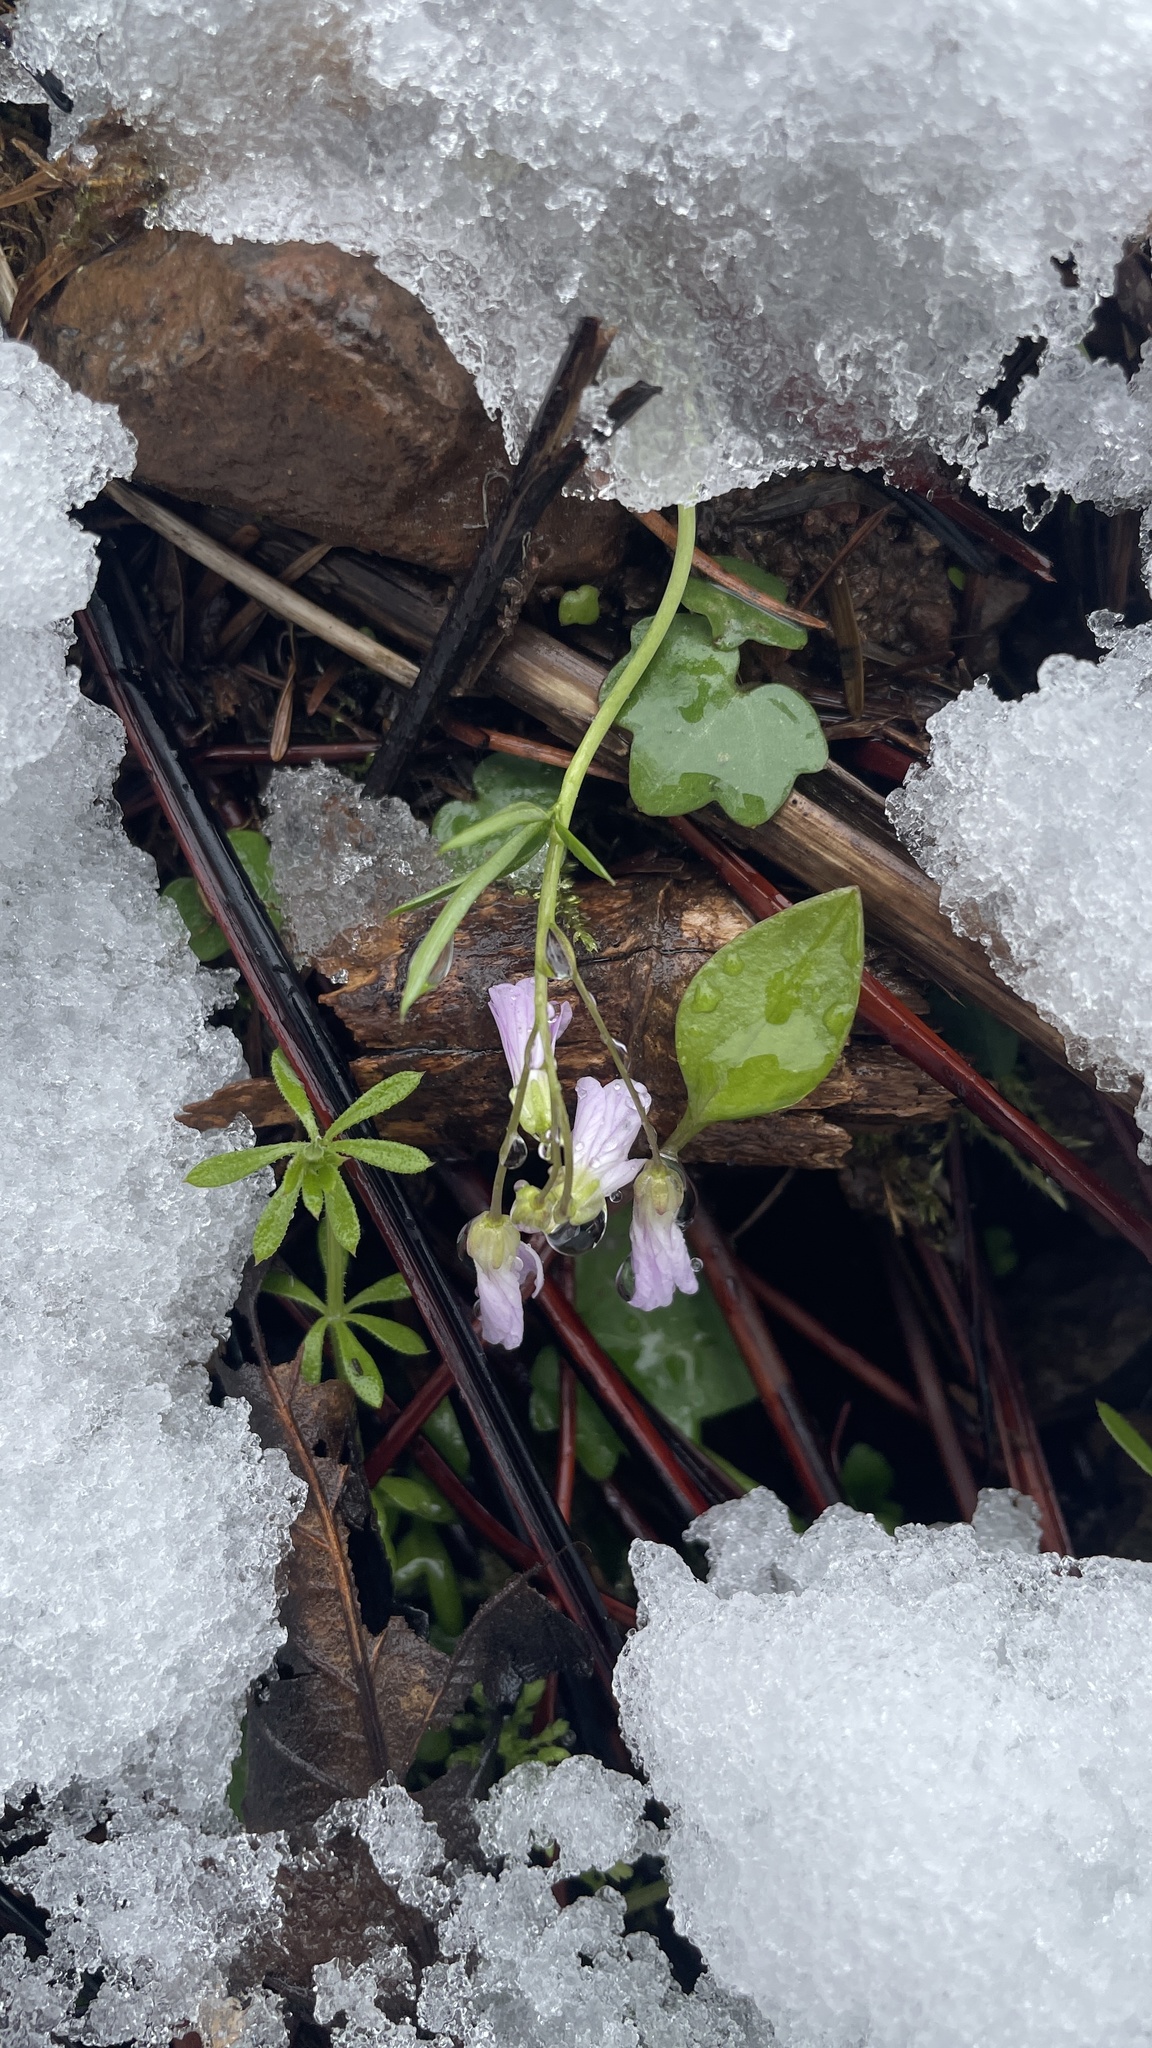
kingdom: Plantae
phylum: Tracheophyta
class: Magnoliopsida
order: Brassicales
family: Brassicaceae
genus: Cardamine
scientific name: Cardamine nuttallii
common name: Nuttall's toothwort
